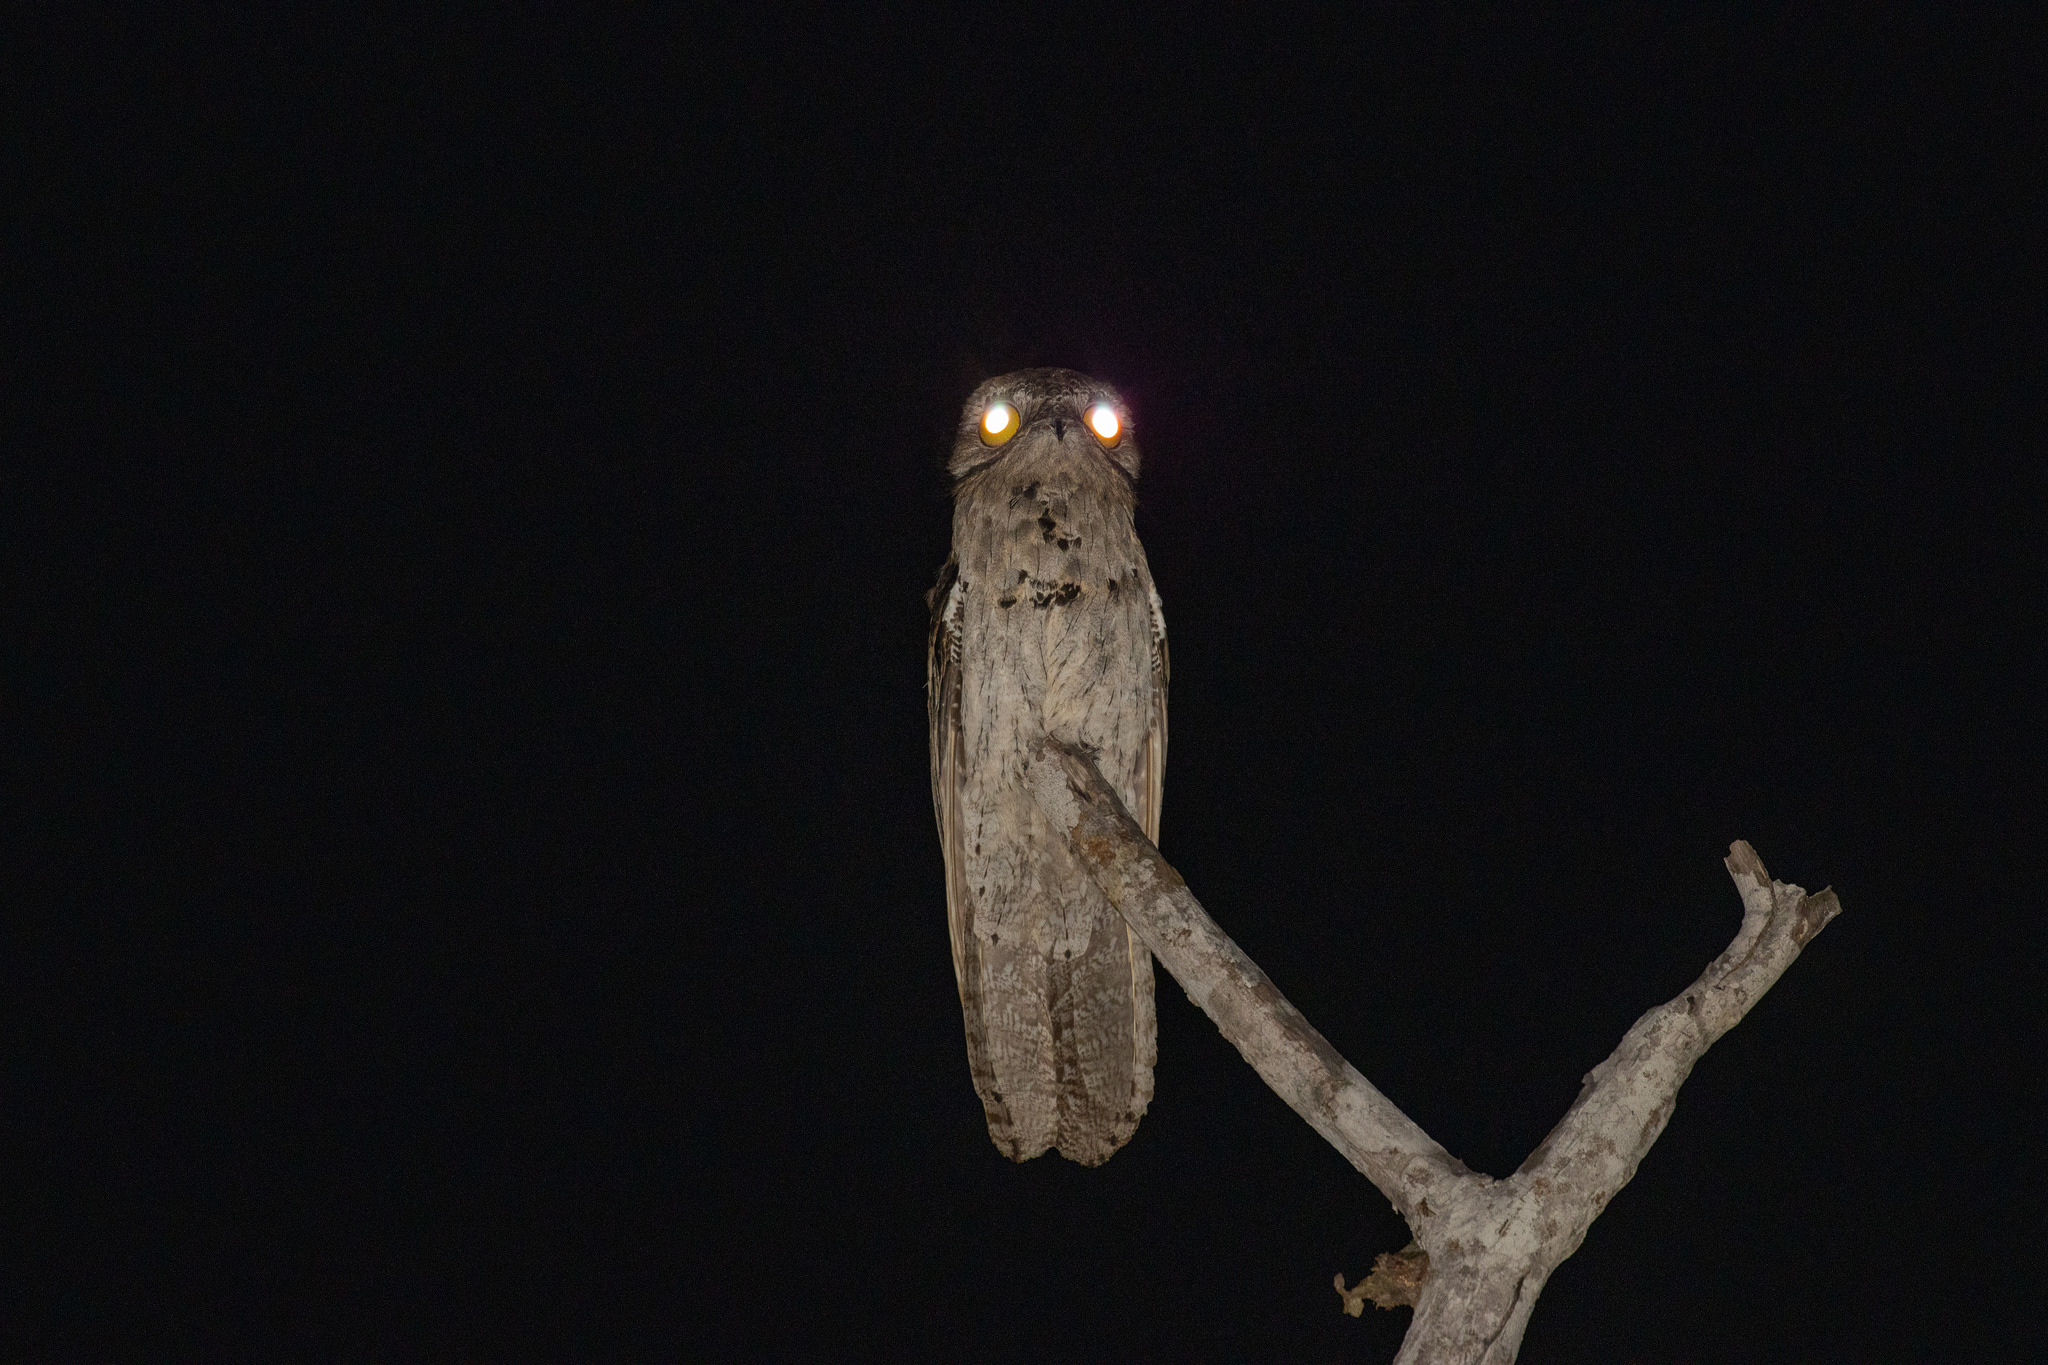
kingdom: Animalia
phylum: Chordata
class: Aves
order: Nyctibiiformes
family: Nyctibiidae
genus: Nyctibius
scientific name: Nyctibius griseus
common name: Common potoo
